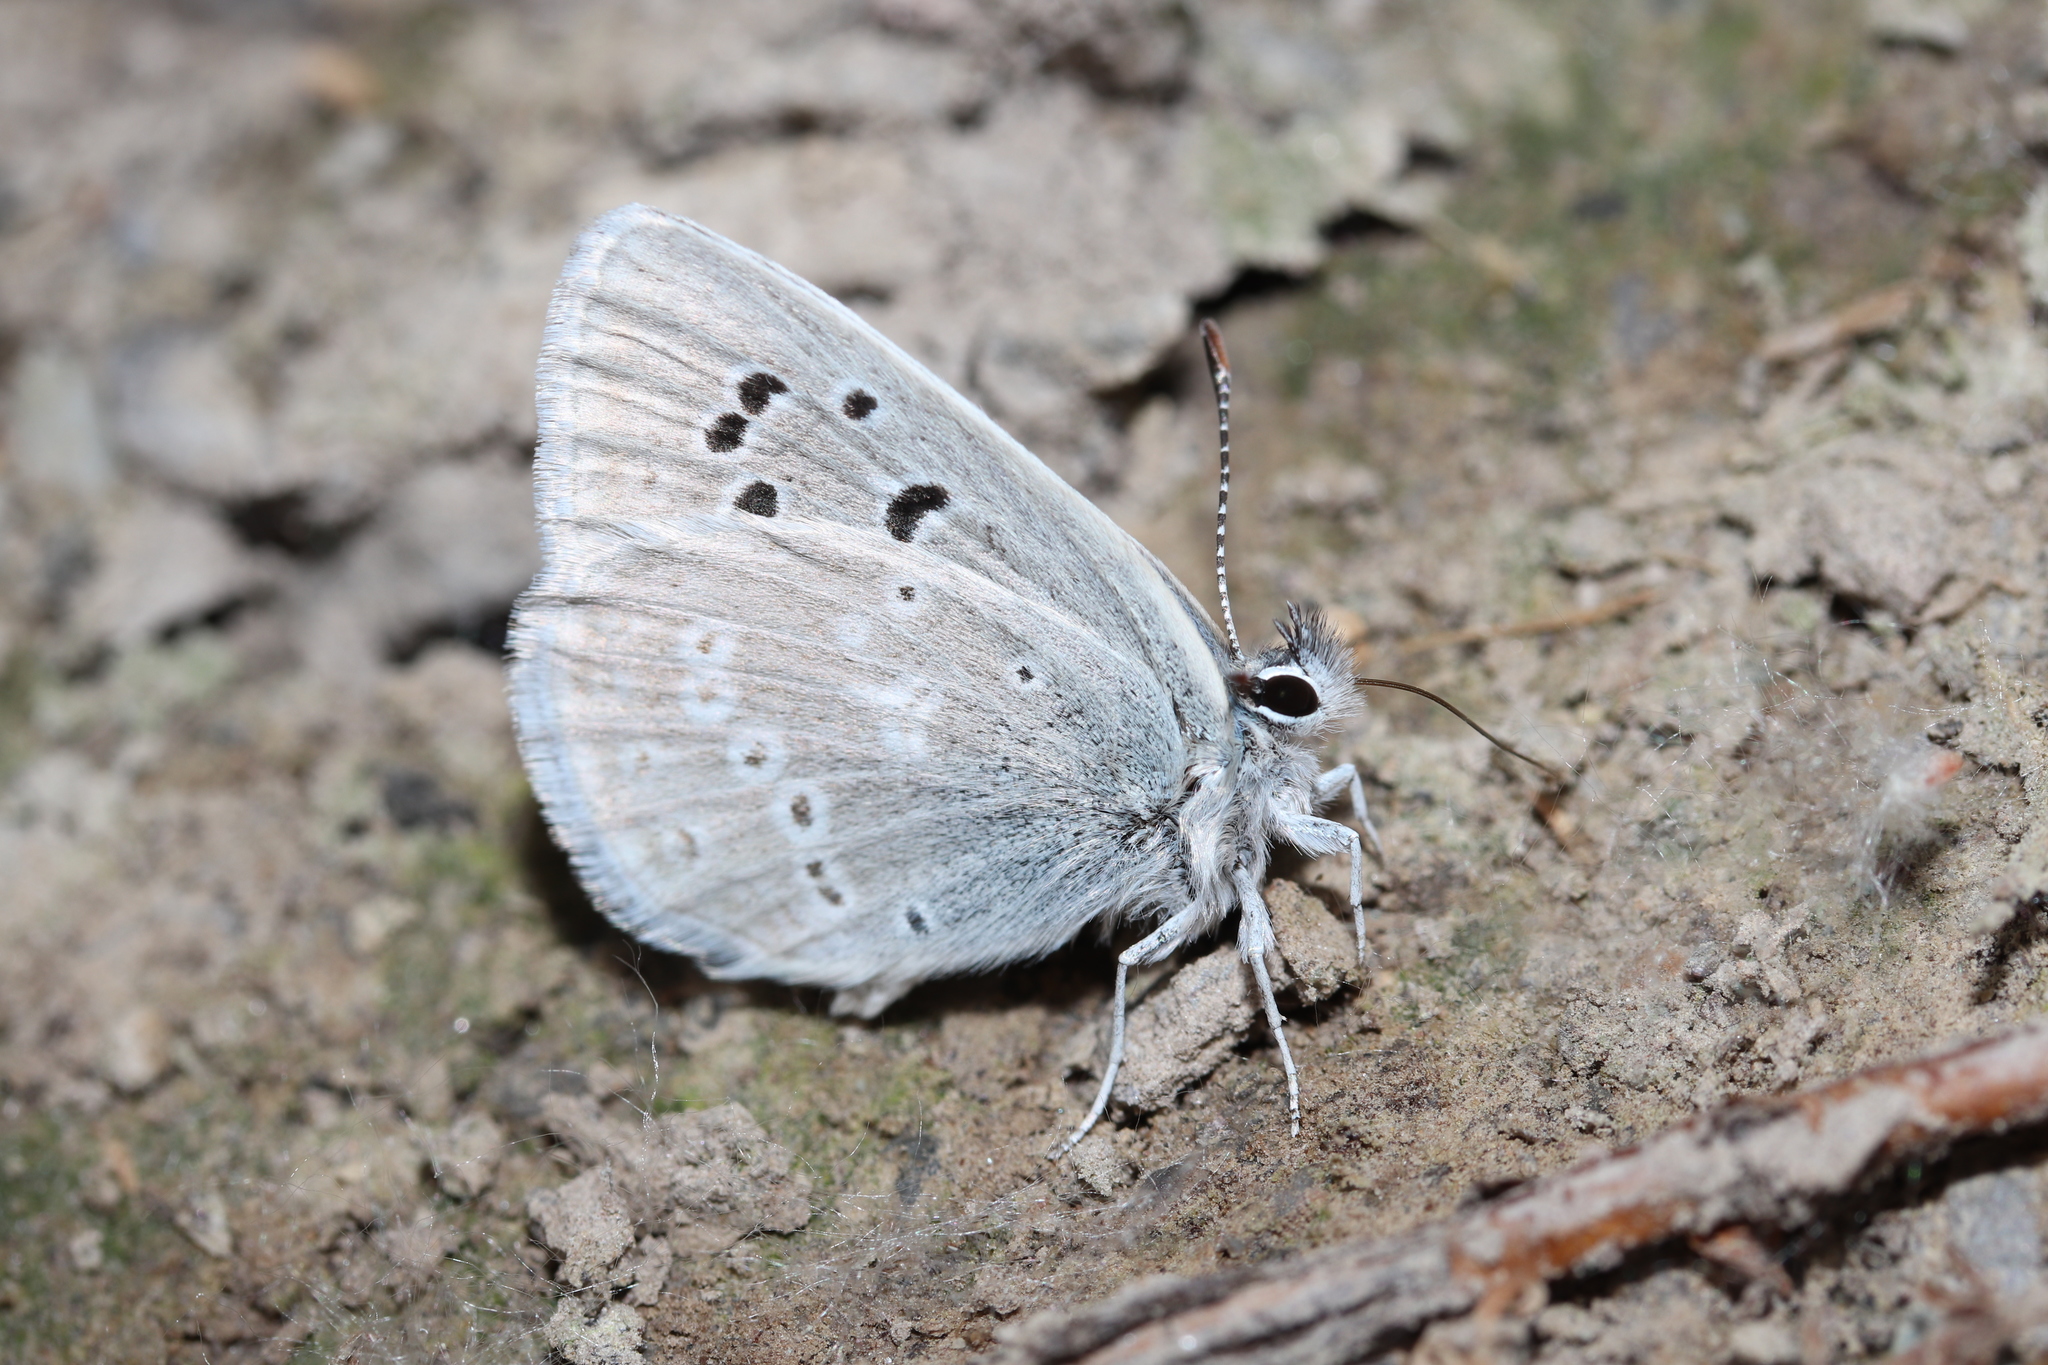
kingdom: Animalia
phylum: Arthropoda
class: Insecta
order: Lepidoptera
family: Lycaenidae
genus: Icaricia
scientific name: Icaricia icarioides
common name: Boisduval's blue
